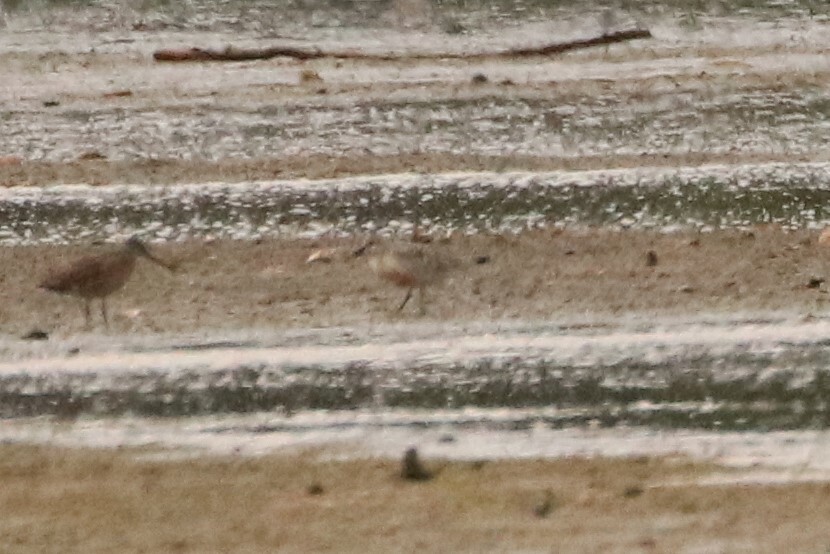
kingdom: Animalia
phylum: Chordata
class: Aves
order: Charadriiformes
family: Scolopacidae
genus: Calidris
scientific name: Calidris canutus
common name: Red knot
